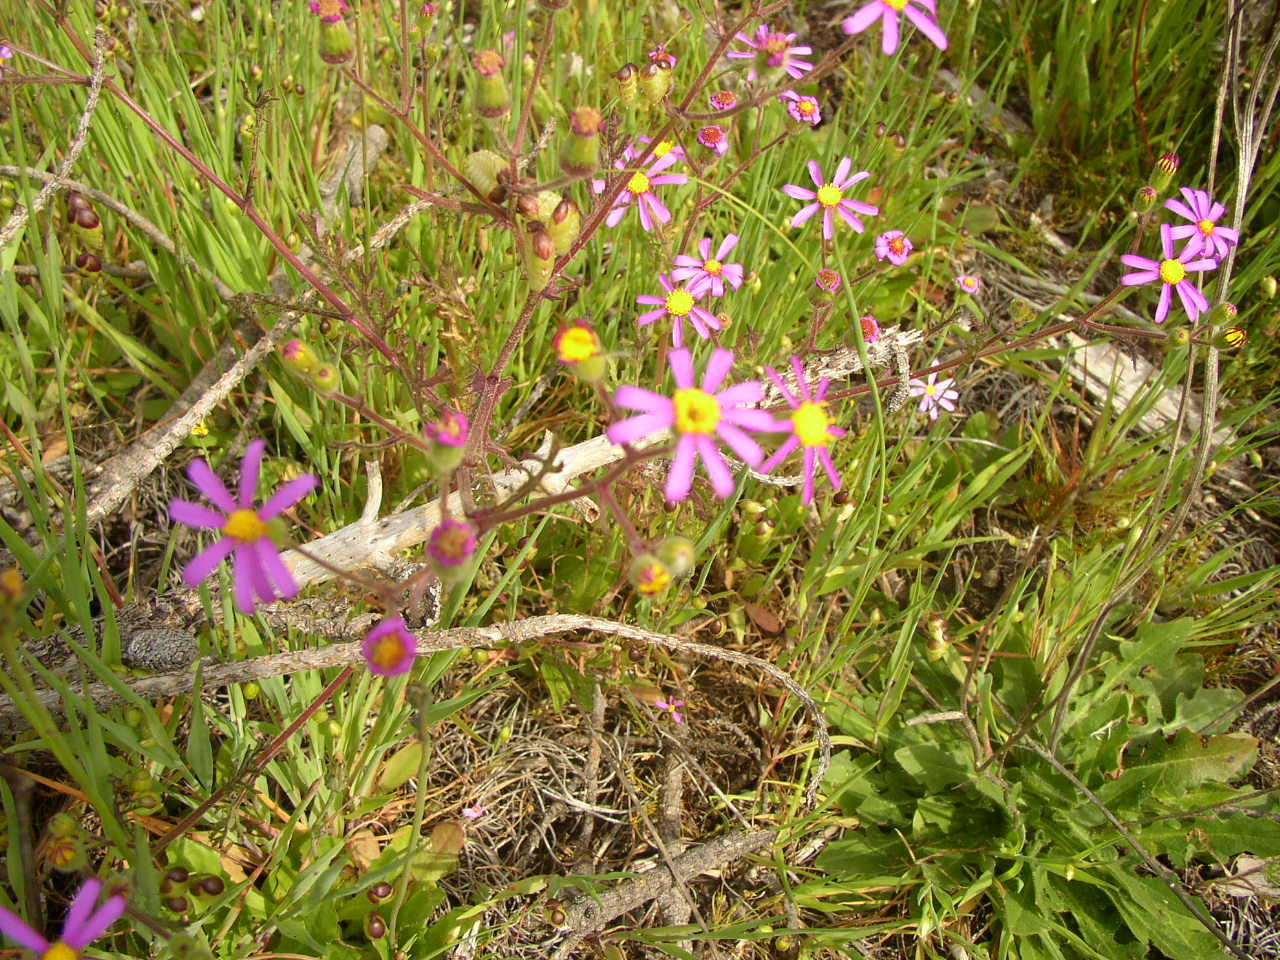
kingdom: Plantae
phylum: Tracheophyta
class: Magnoliopsida
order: Asterales
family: Asteraceae
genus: Senecio
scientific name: Senecio arenarius
